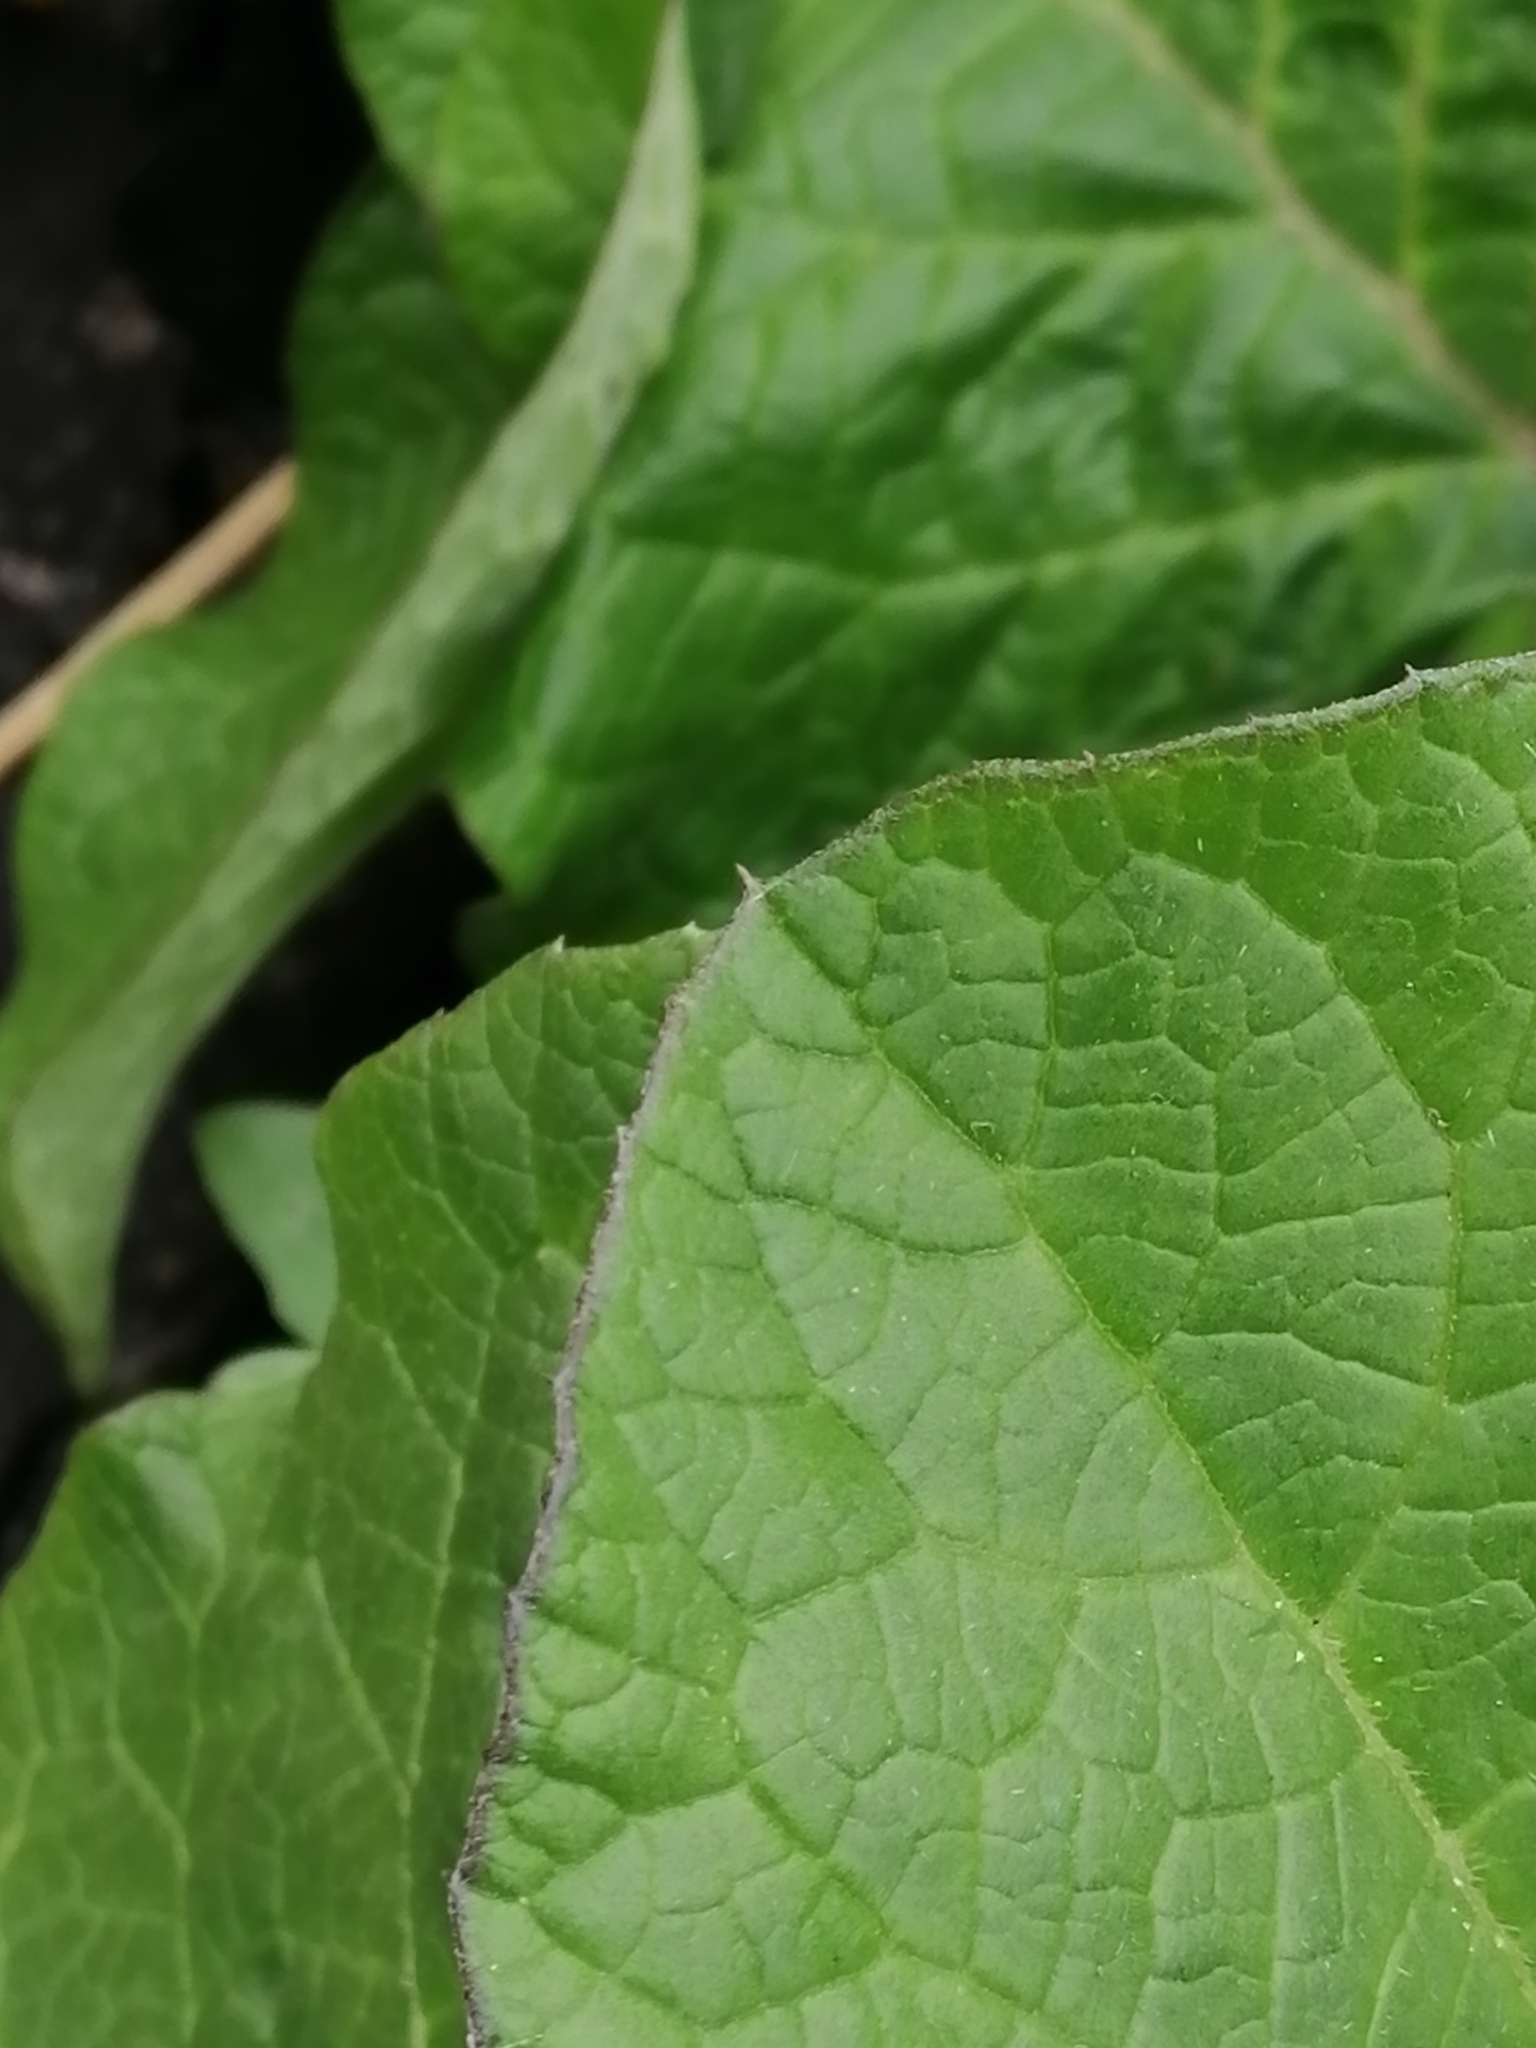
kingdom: Plantae
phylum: Tracheophyta
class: Magnoliopsida
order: Asterales
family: Asteraceae
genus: Arctium
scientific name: Arctium tomentosum
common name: Woolly burdock
